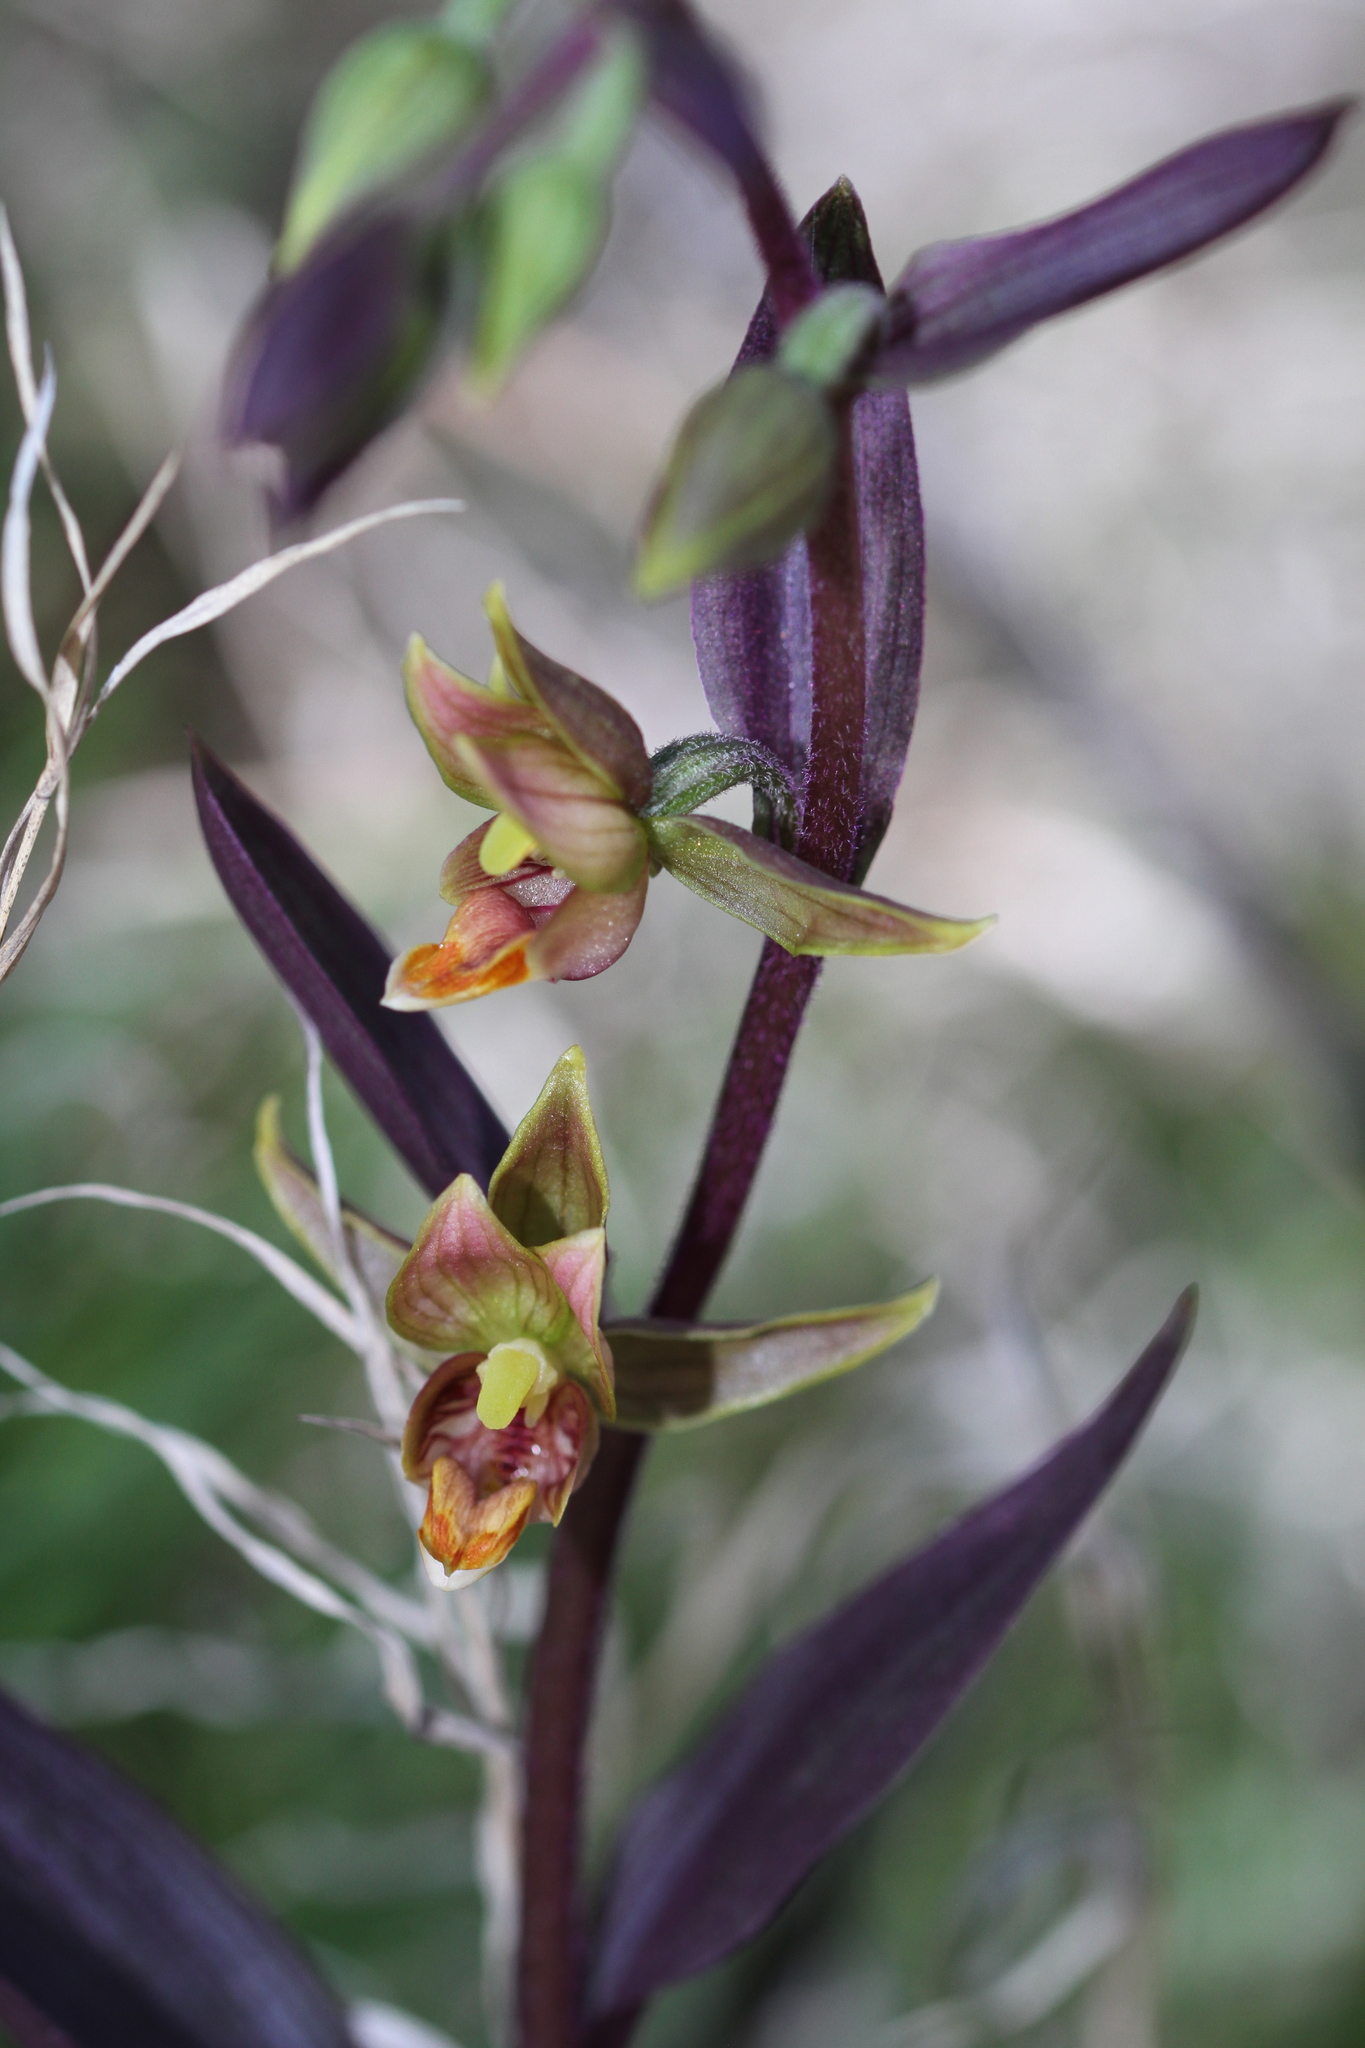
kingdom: Plantae
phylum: Tracheophyta
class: Liliopsida
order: Asparagales
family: Orchidaceae
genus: Epipactis
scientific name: Epipactis gigantea
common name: Chatterbox
